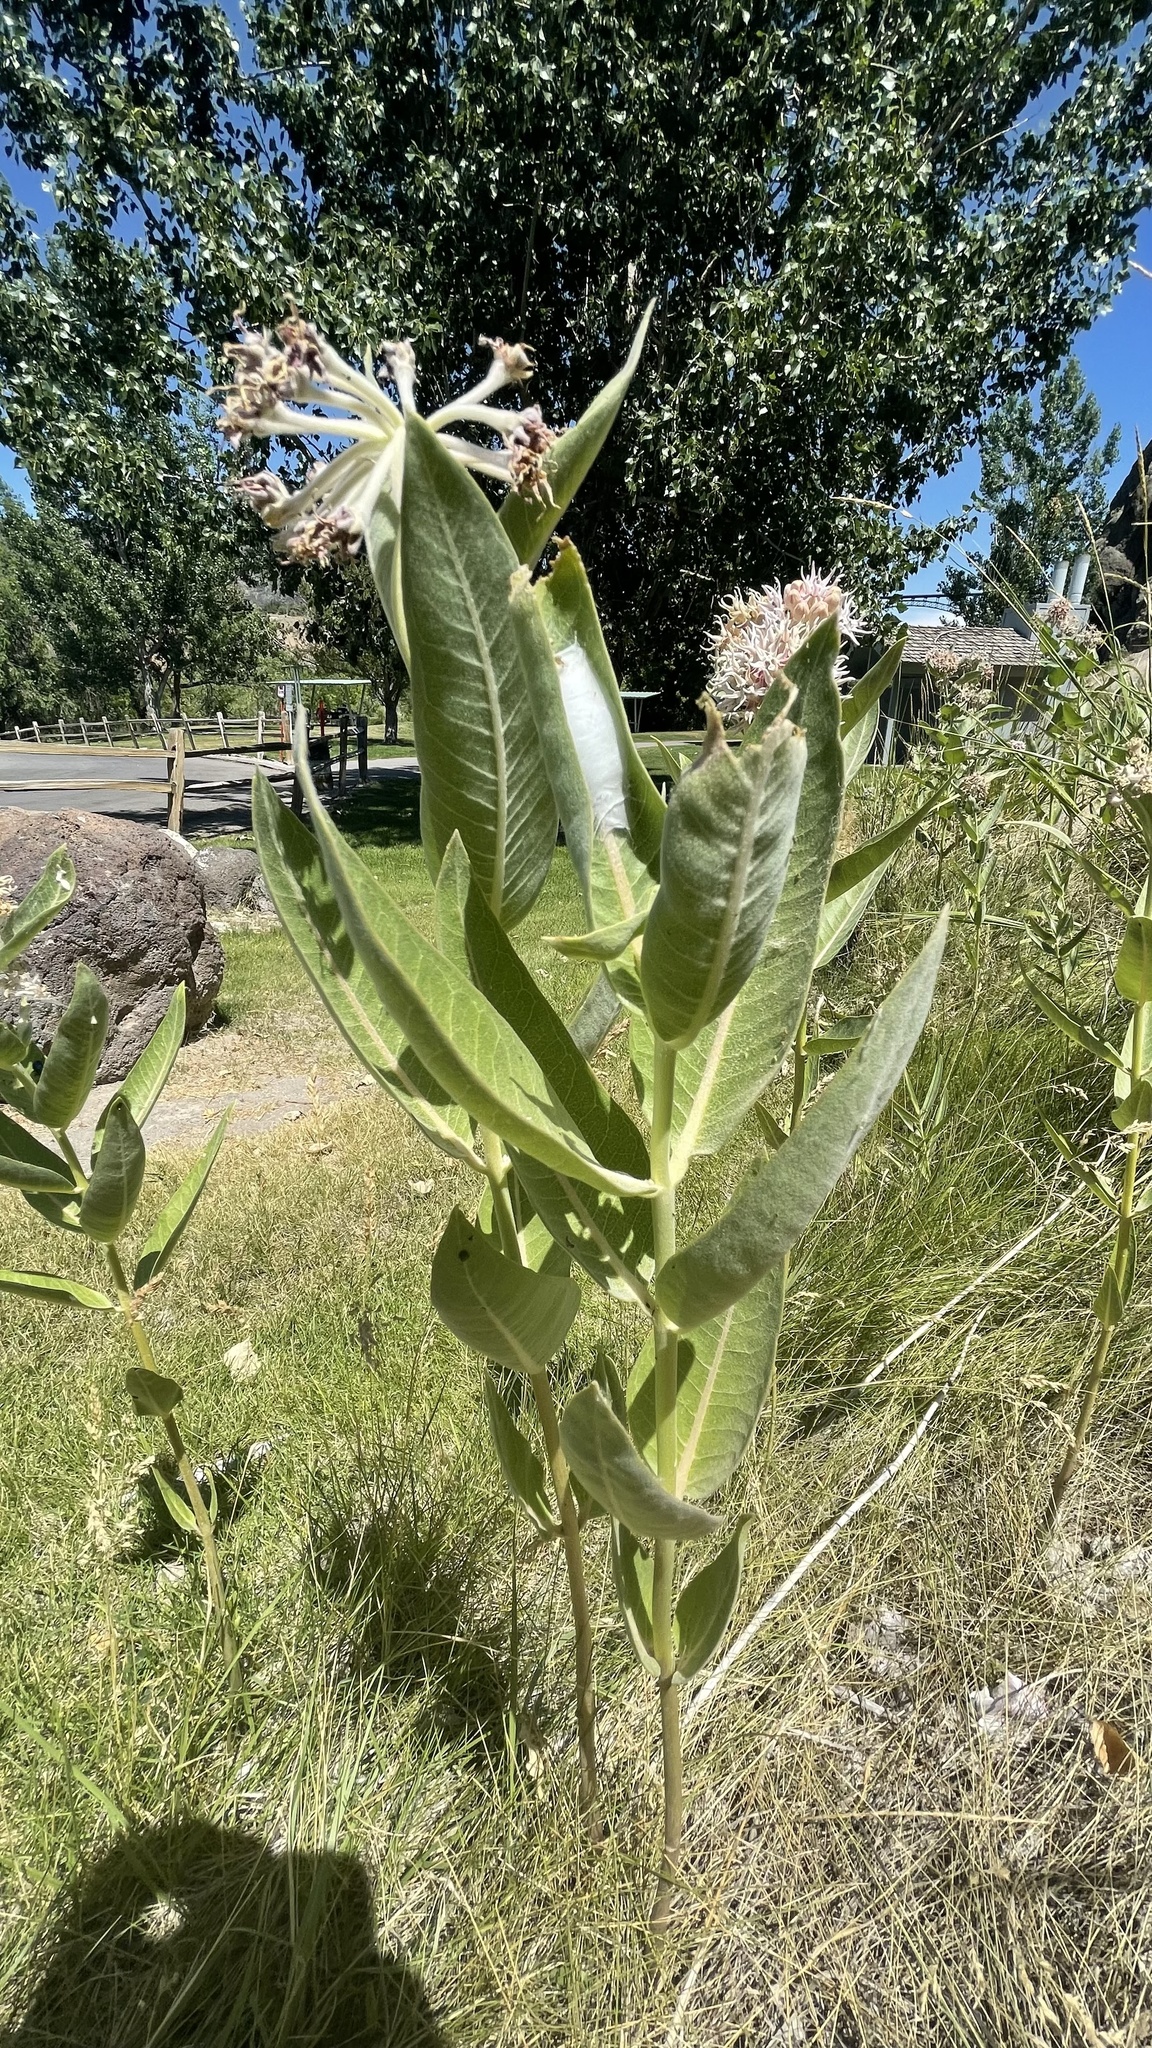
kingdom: Plantae
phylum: Tracheophyta
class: Magnoliopsida
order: Gentianales
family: Apocynaceae
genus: Asclepias
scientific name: Asclepias speciosa
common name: Showy milkweed
